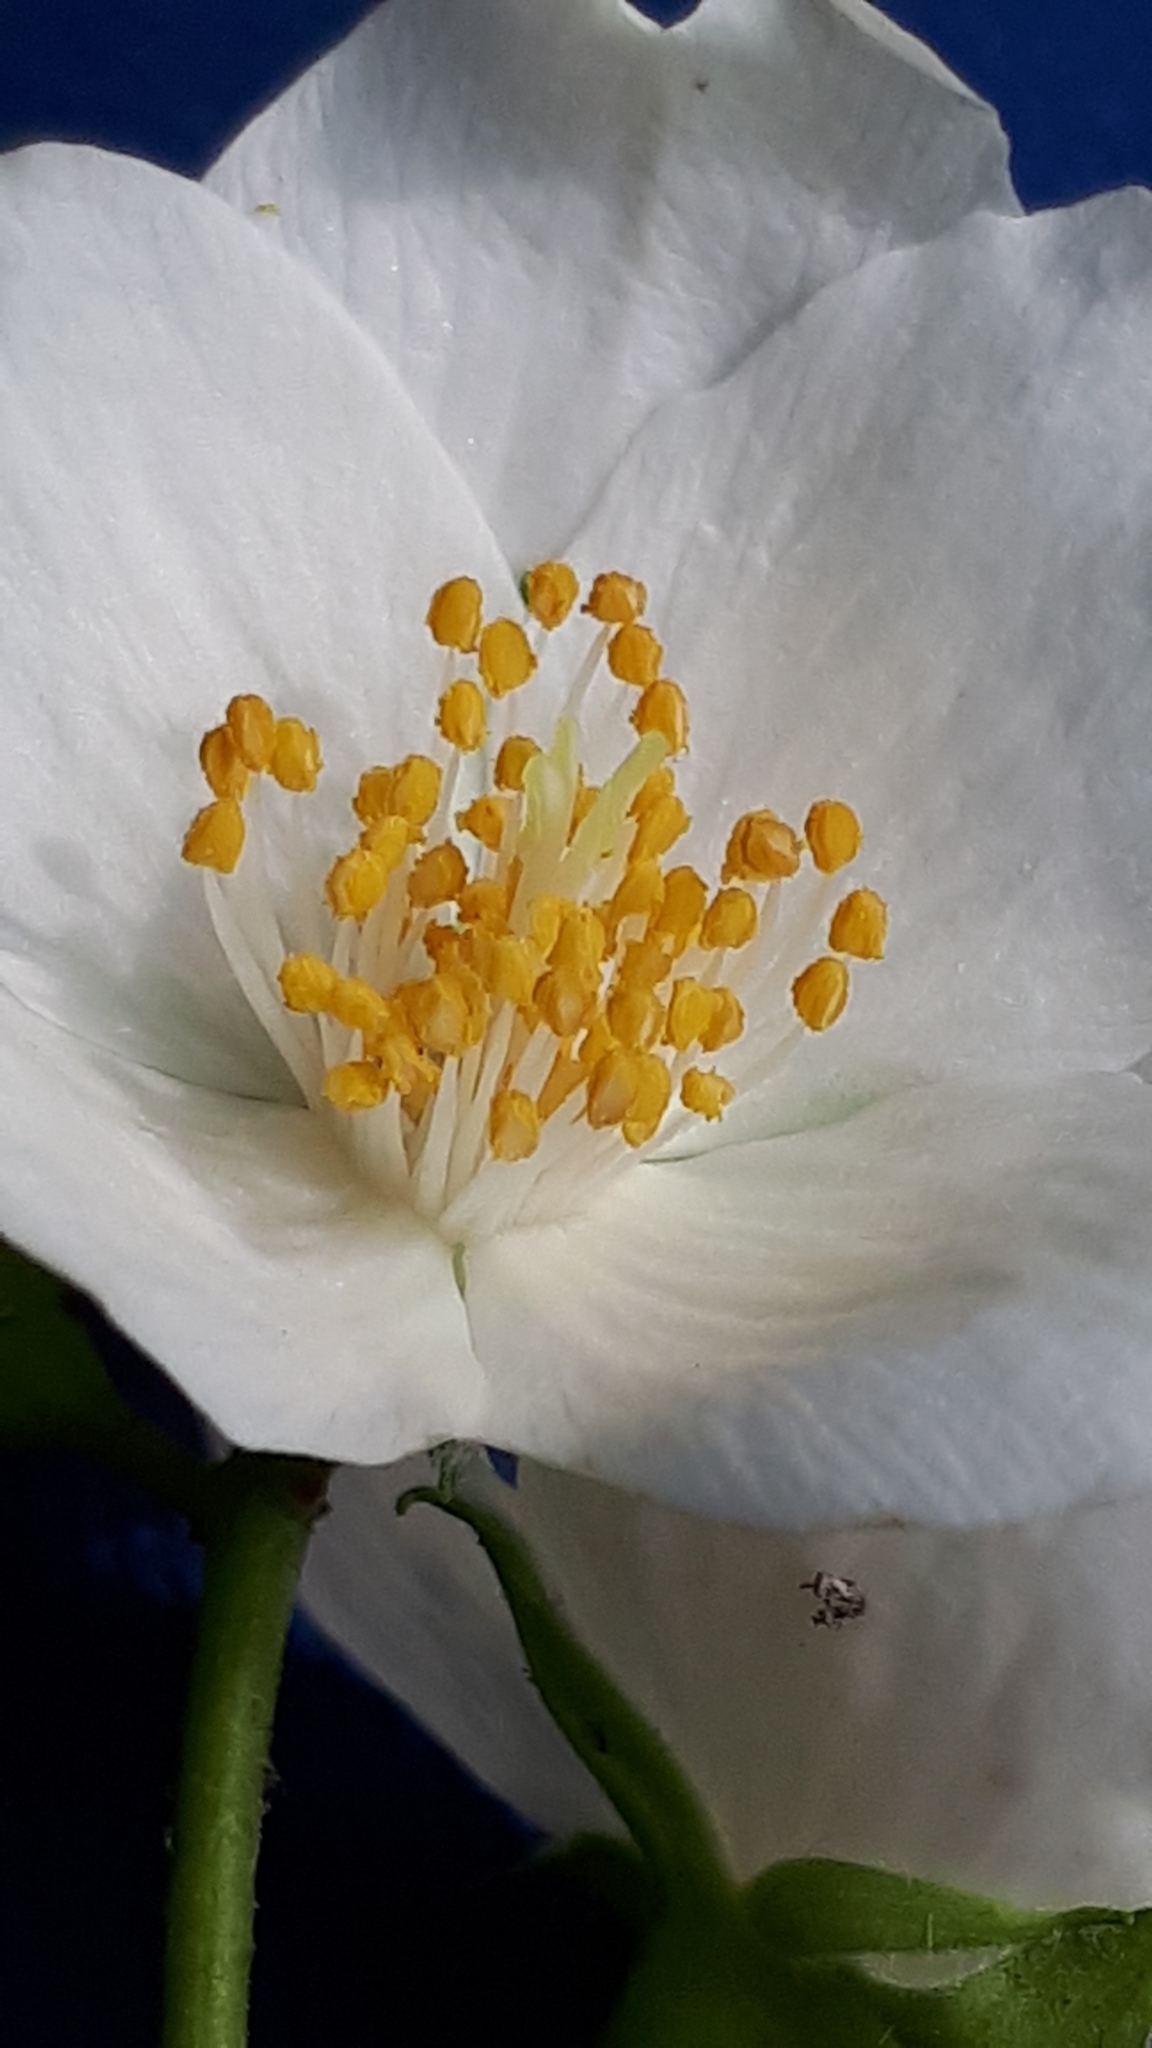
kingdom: Plantae
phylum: Tracheophyta
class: Magnoliopsida
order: Cornales
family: Hydrangeaceae
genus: Philadelphus
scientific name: Philadelphus coronarius
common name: Mock orange
